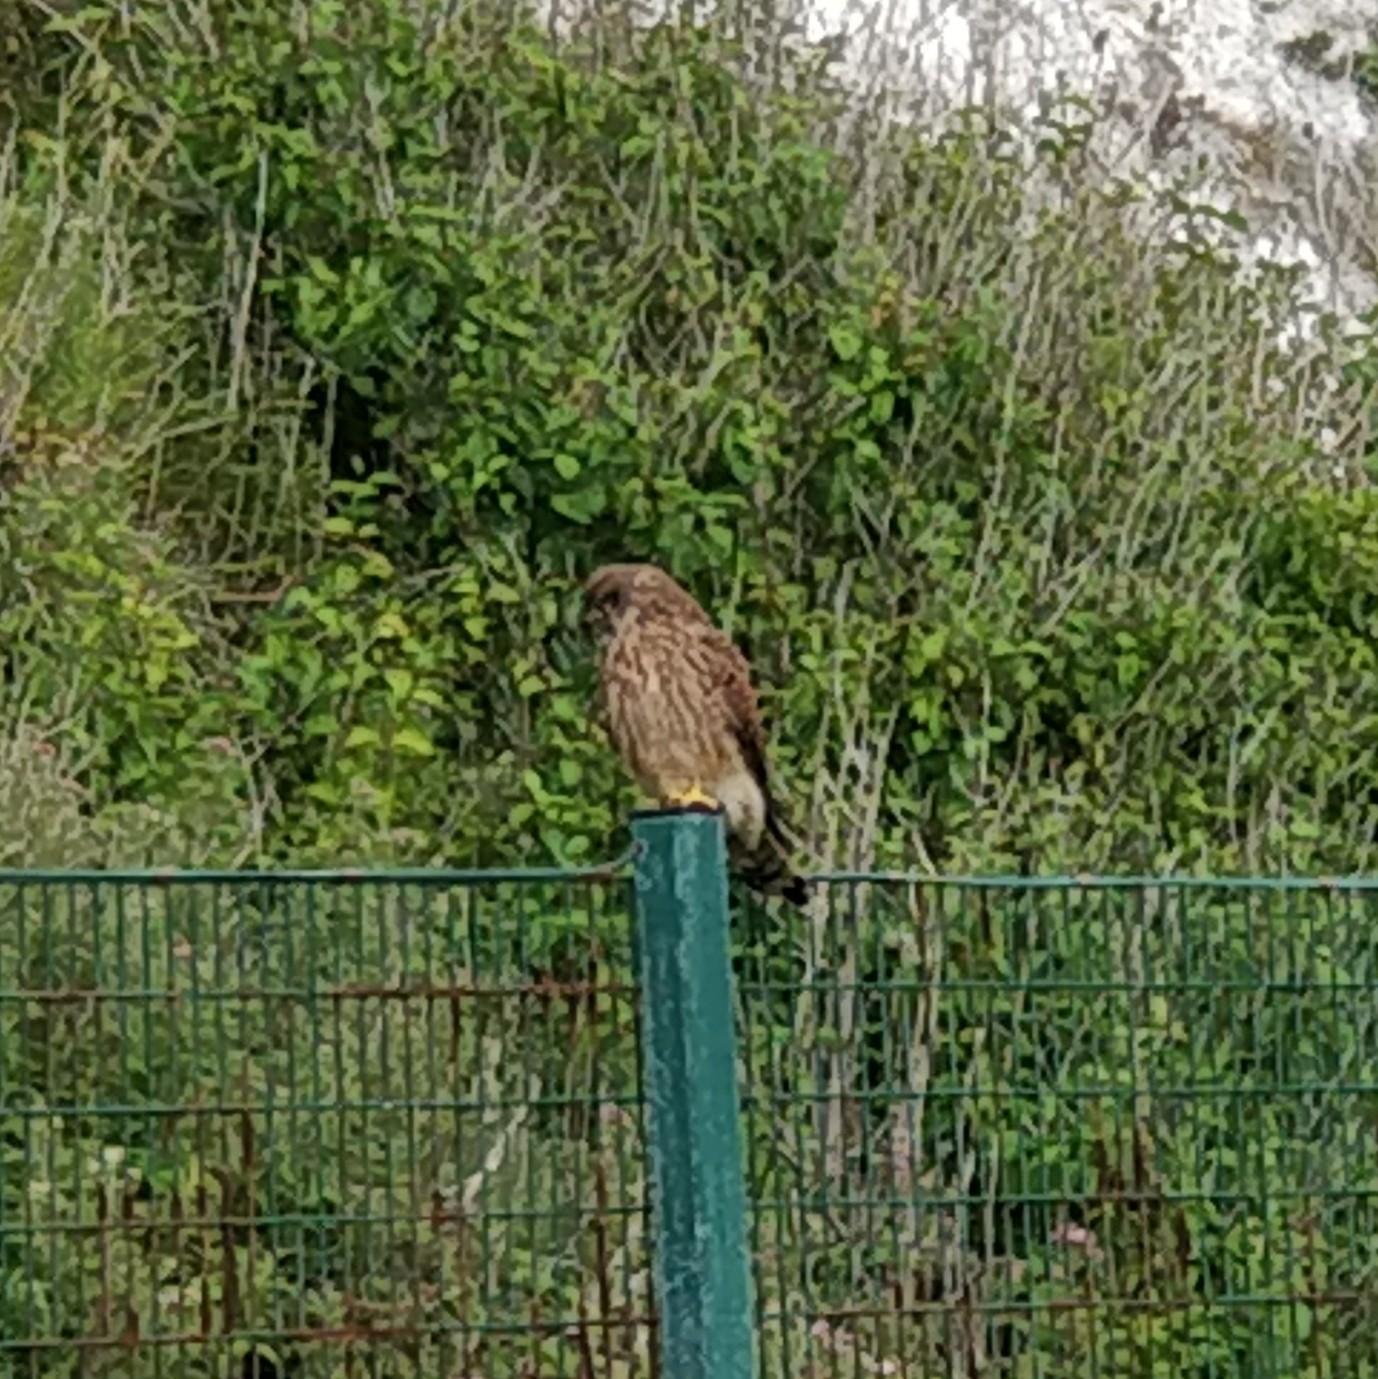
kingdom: Animalia
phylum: Chordata
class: Aves
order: Falconiformes
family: Falconidae
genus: Falco
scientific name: Falco tinnunculus
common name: Common kestrel
